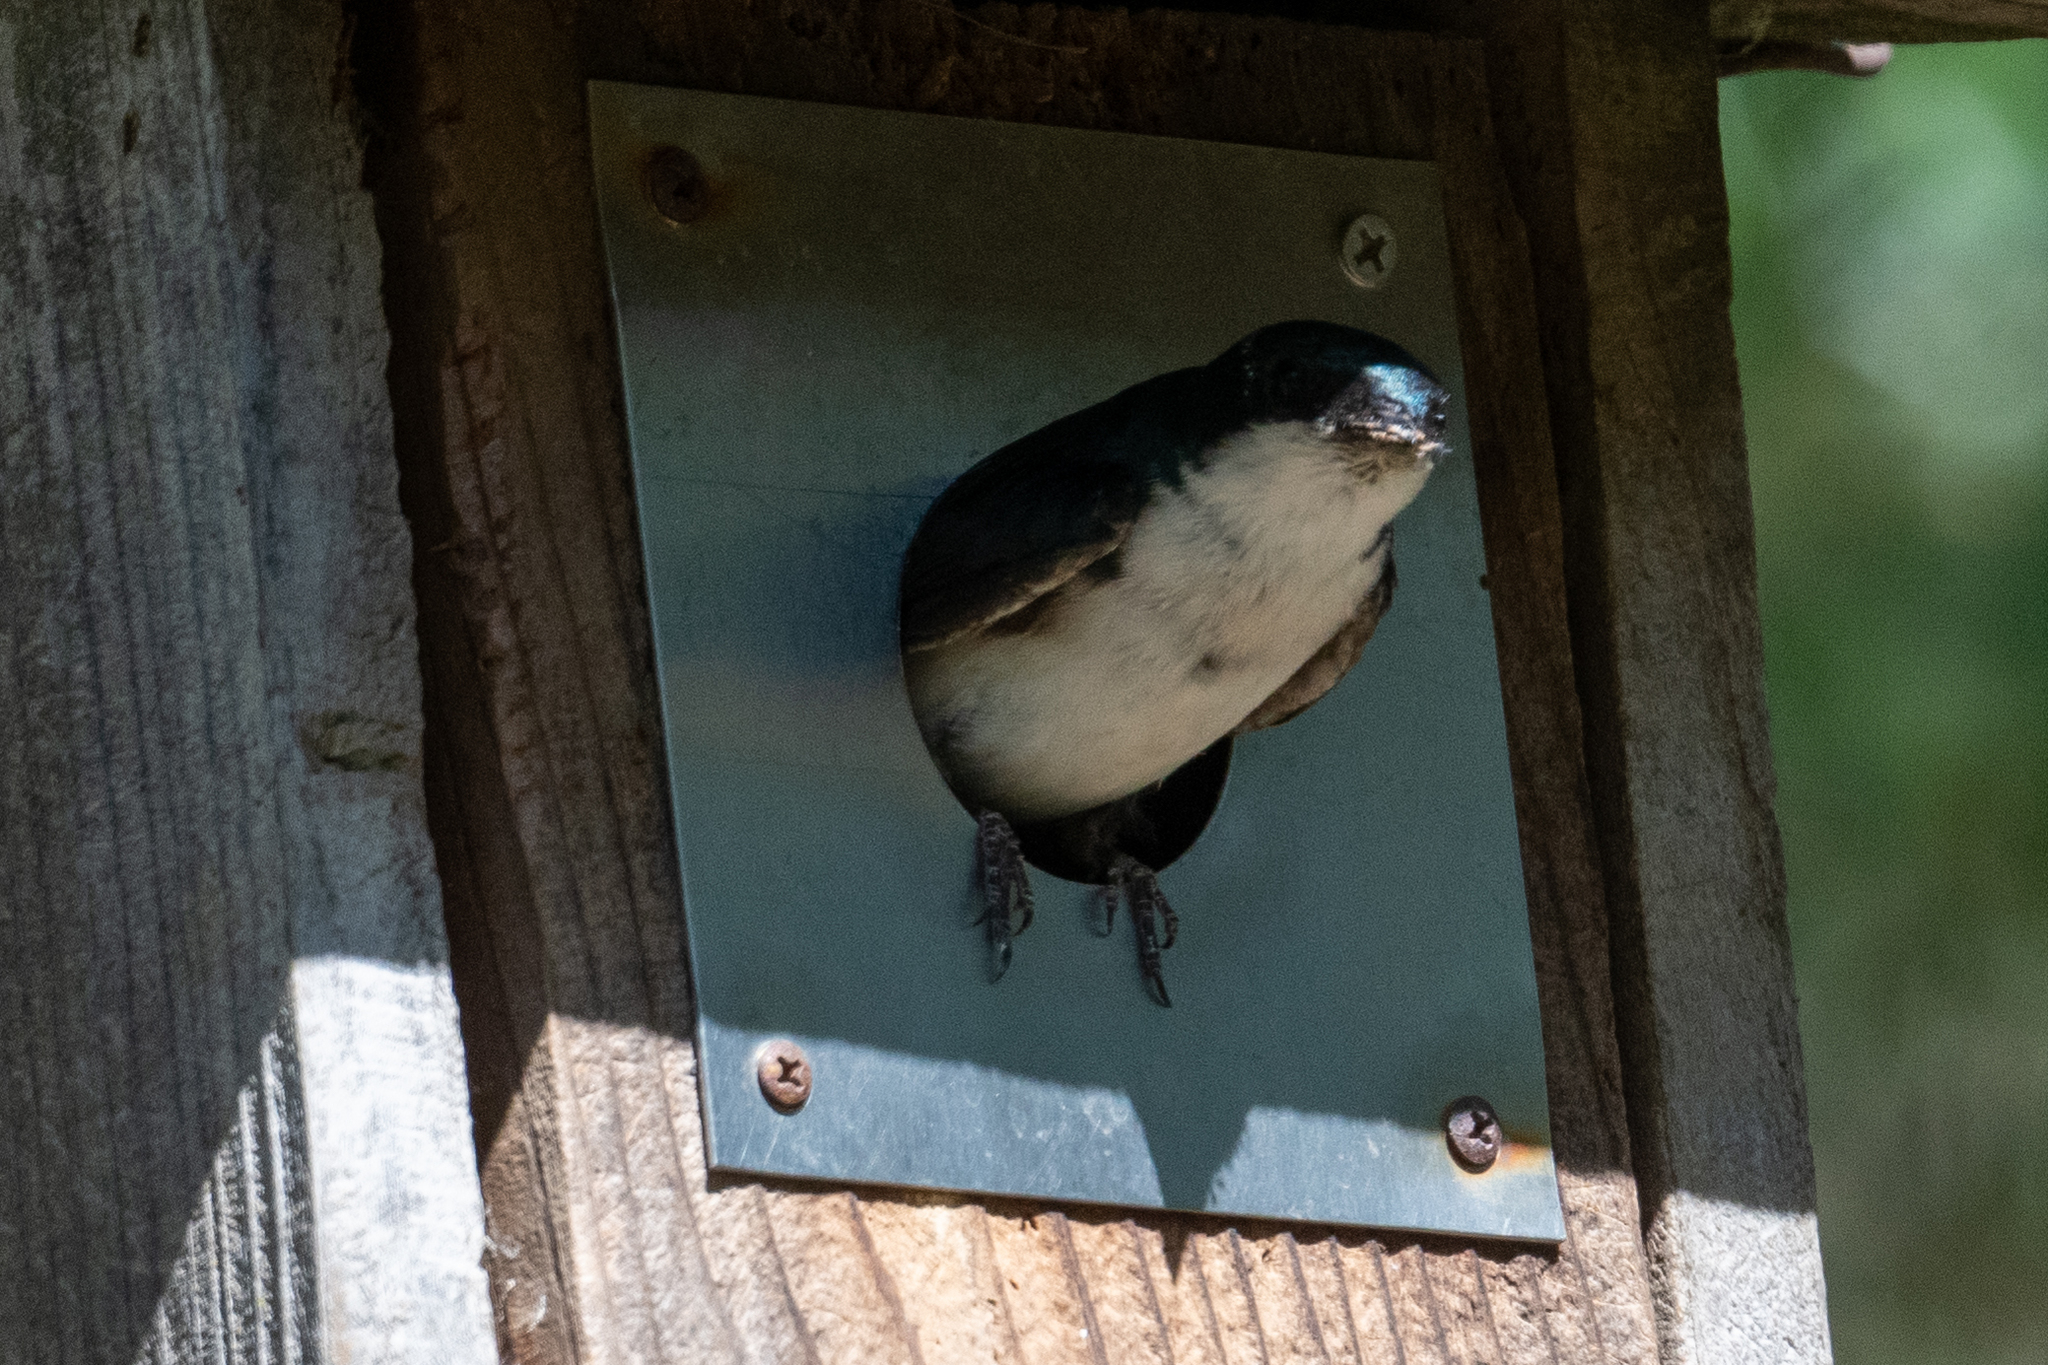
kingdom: Animalia
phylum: Chordata
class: Aves
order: Passeriformes
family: Hirundinidae
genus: Tachycineta
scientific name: Tachycineta bicolor
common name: Tree swallow
